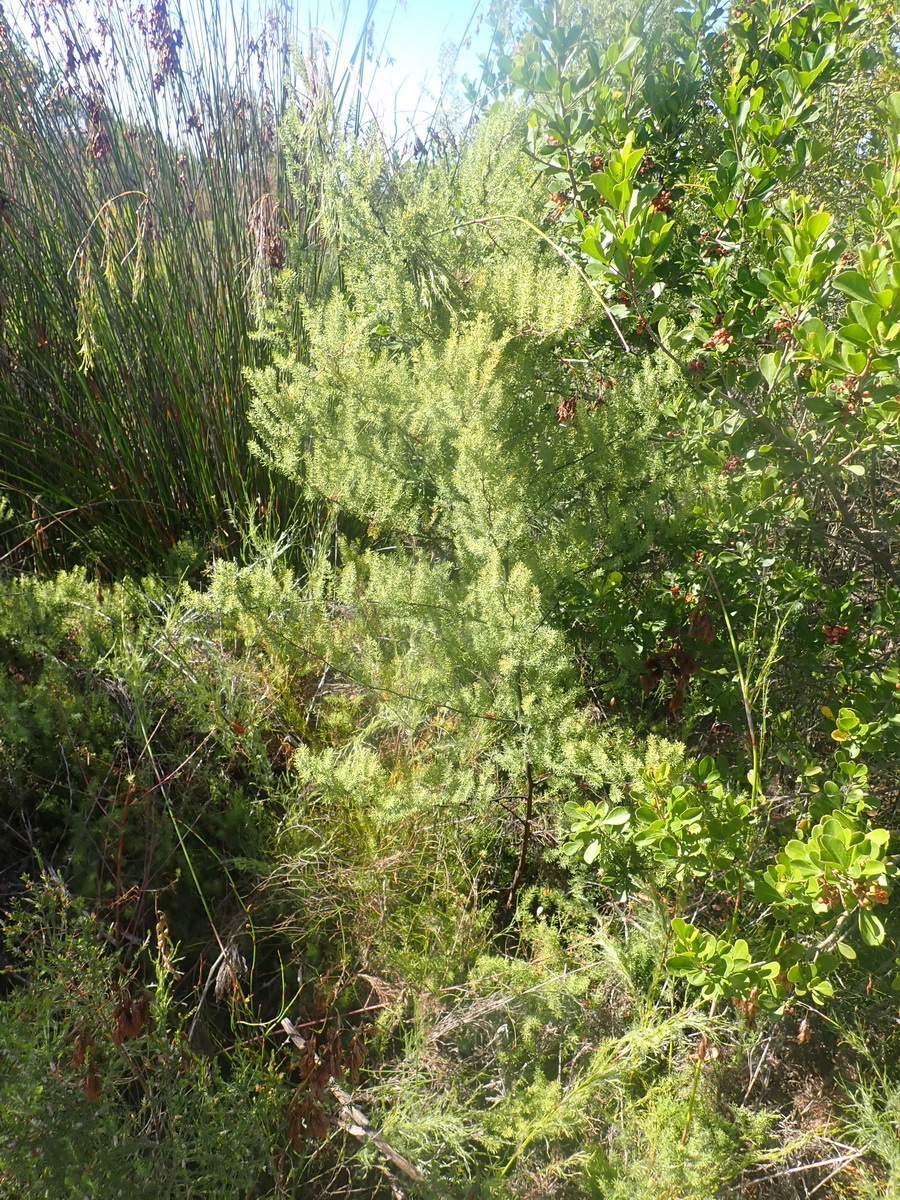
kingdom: Plantae
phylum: Tracheophyta
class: Liliopsida
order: Asparagales
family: Asparagaceae
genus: Asparagus
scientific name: Asparagus rubicundus
